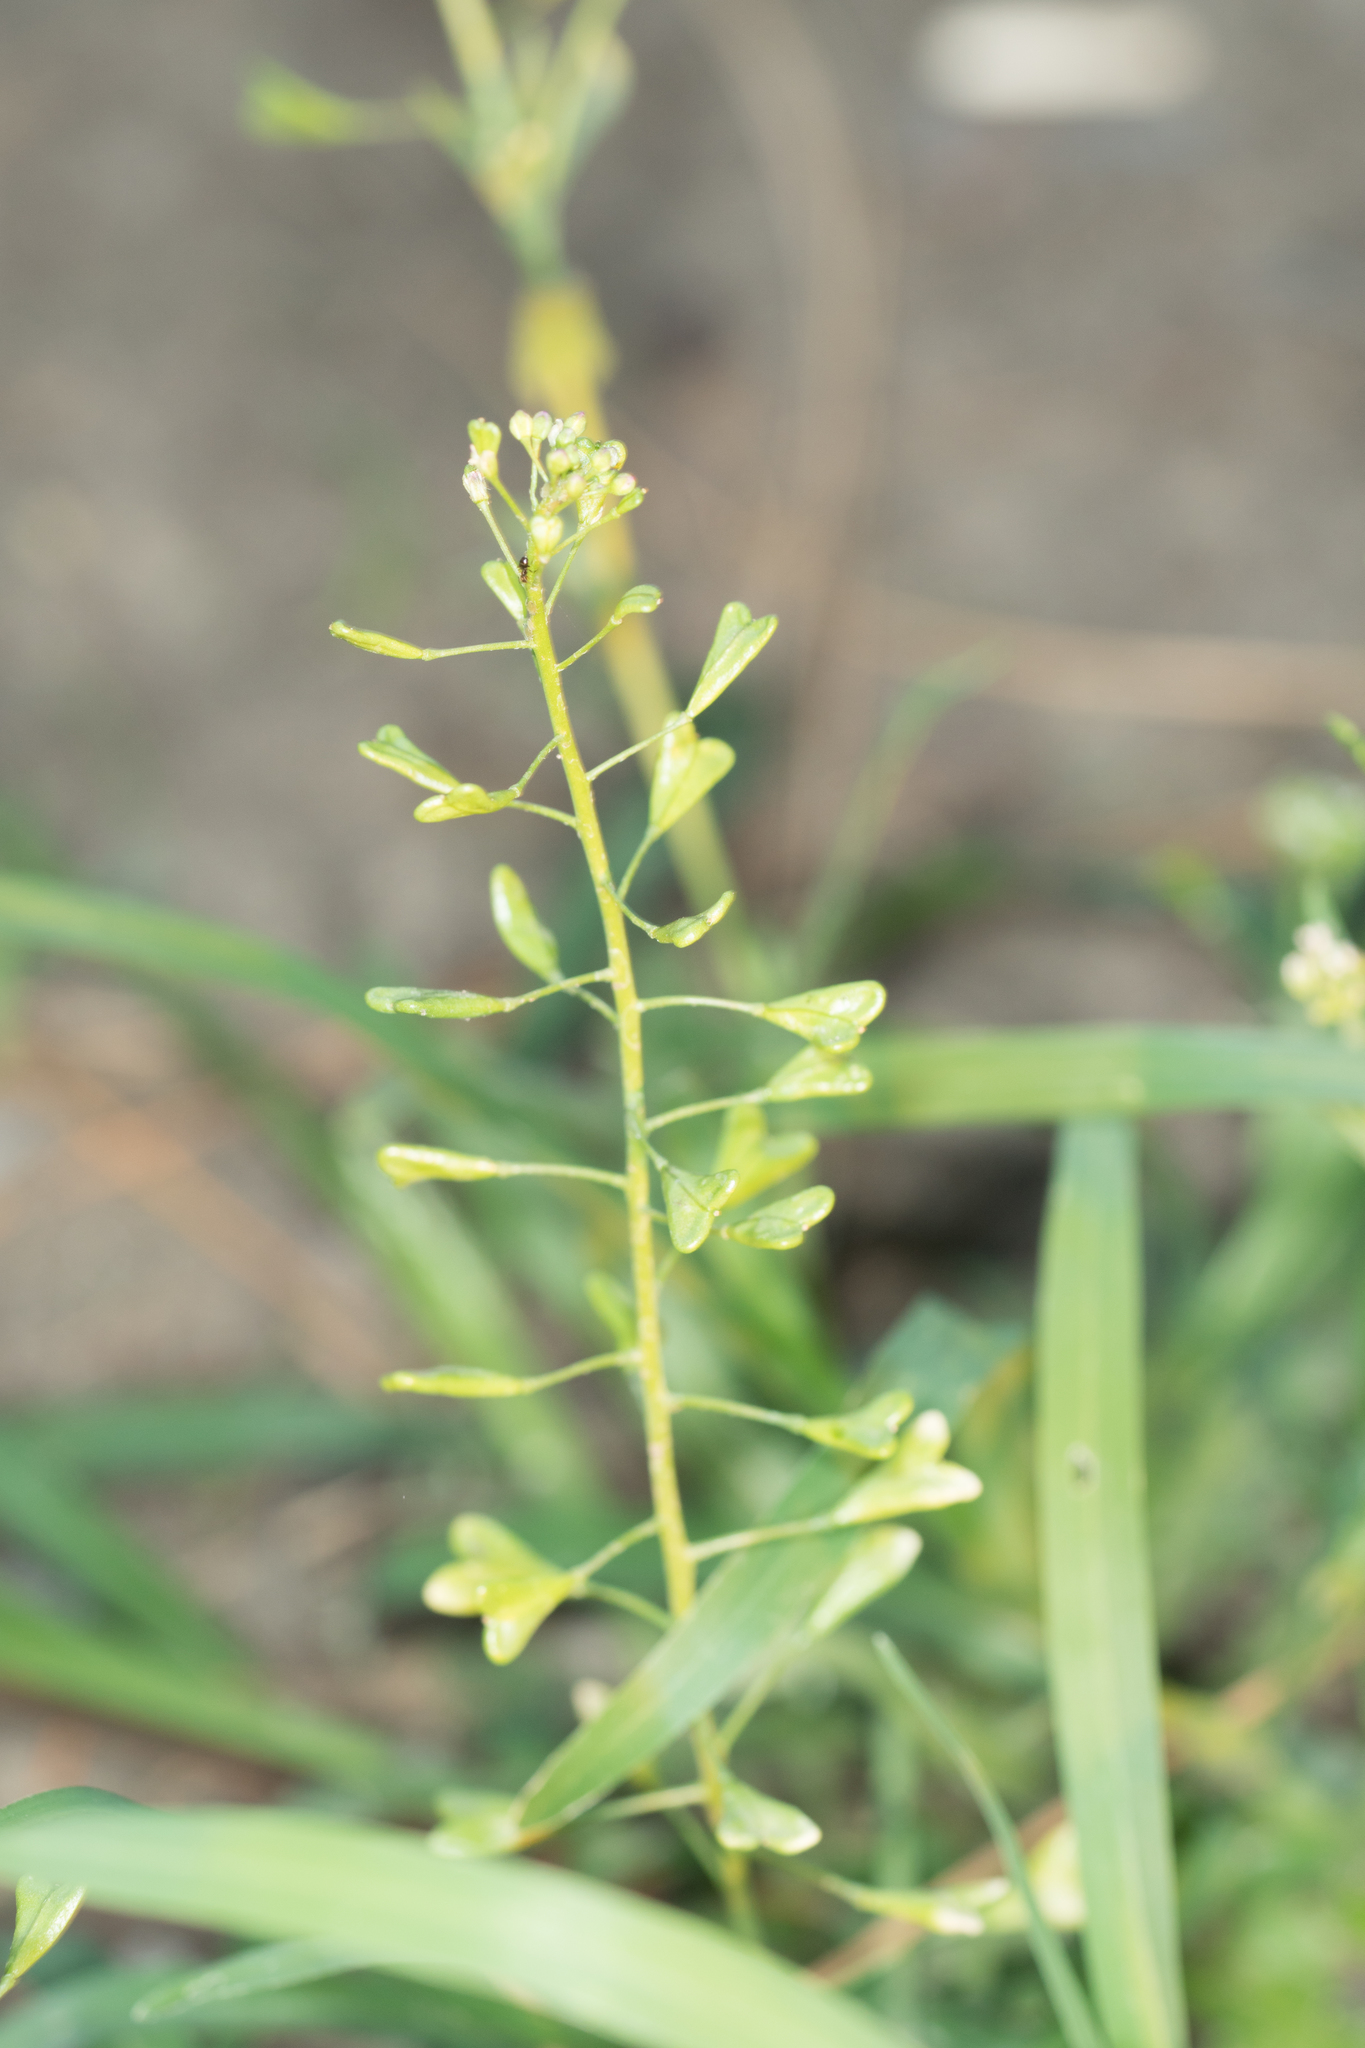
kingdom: Plantae
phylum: Tracheophyta
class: Magnoliopsida
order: Brassicales
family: Brassicaceae
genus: Capsella
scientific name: Capsella bursa-pastoris
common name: Shepherd's purse
